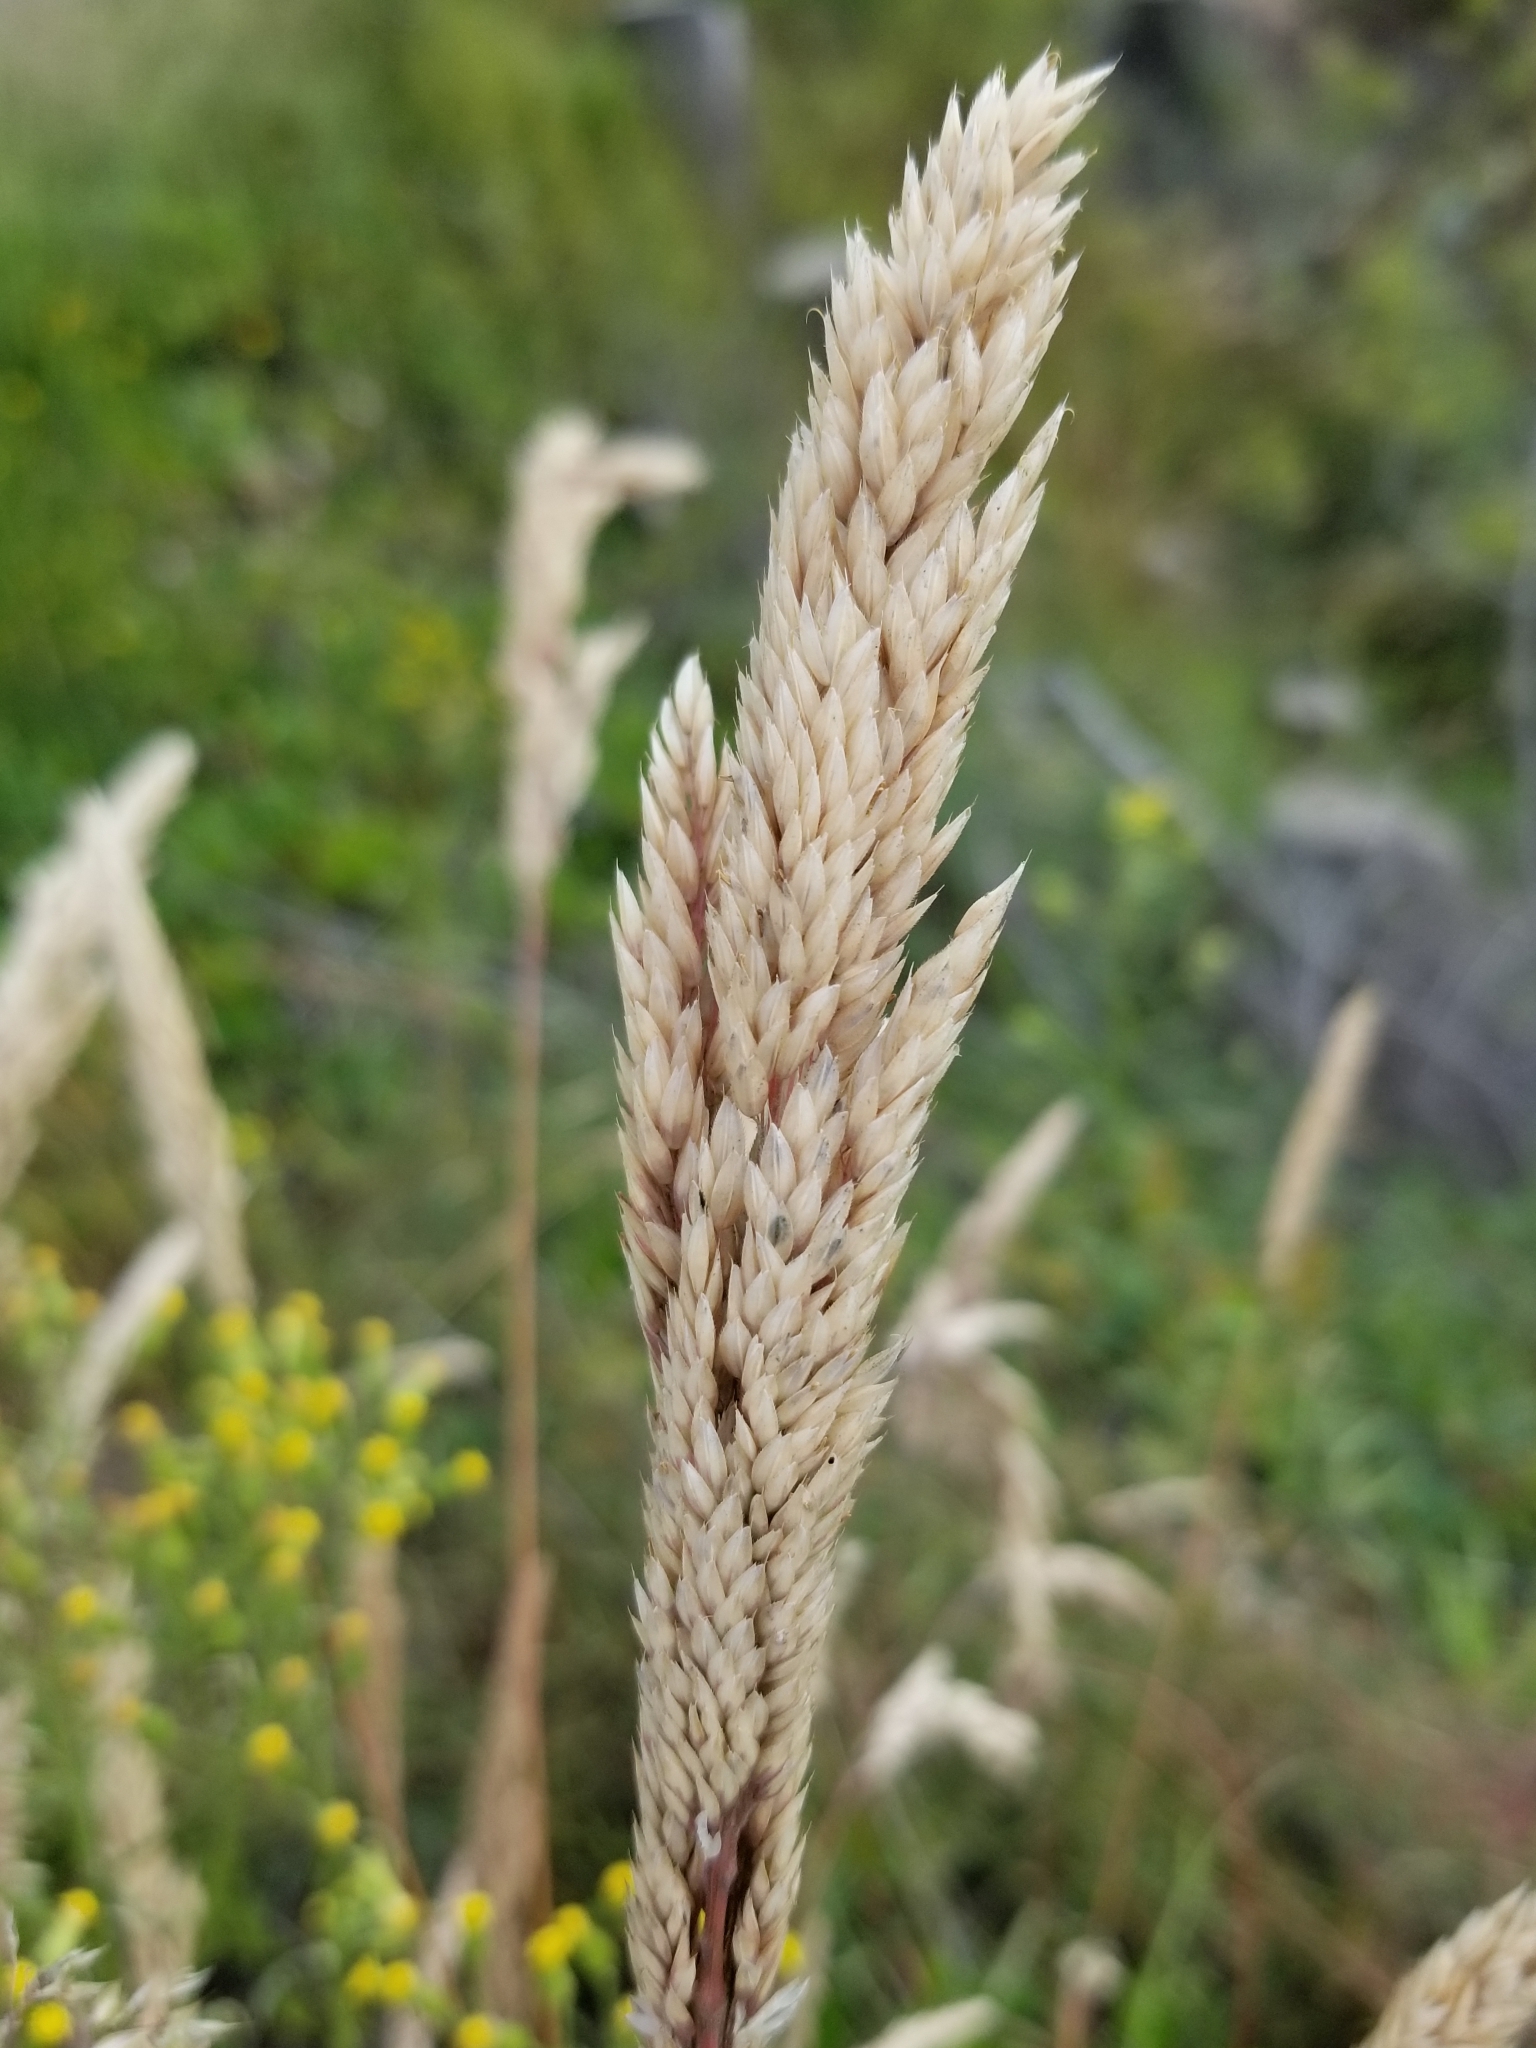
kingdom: Plantae
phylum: Tracheophyta
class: Liliopsida
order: Poales
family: Poaceae
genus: Holcus
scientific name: Holcus lanatus
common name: Yorkshire-fog
